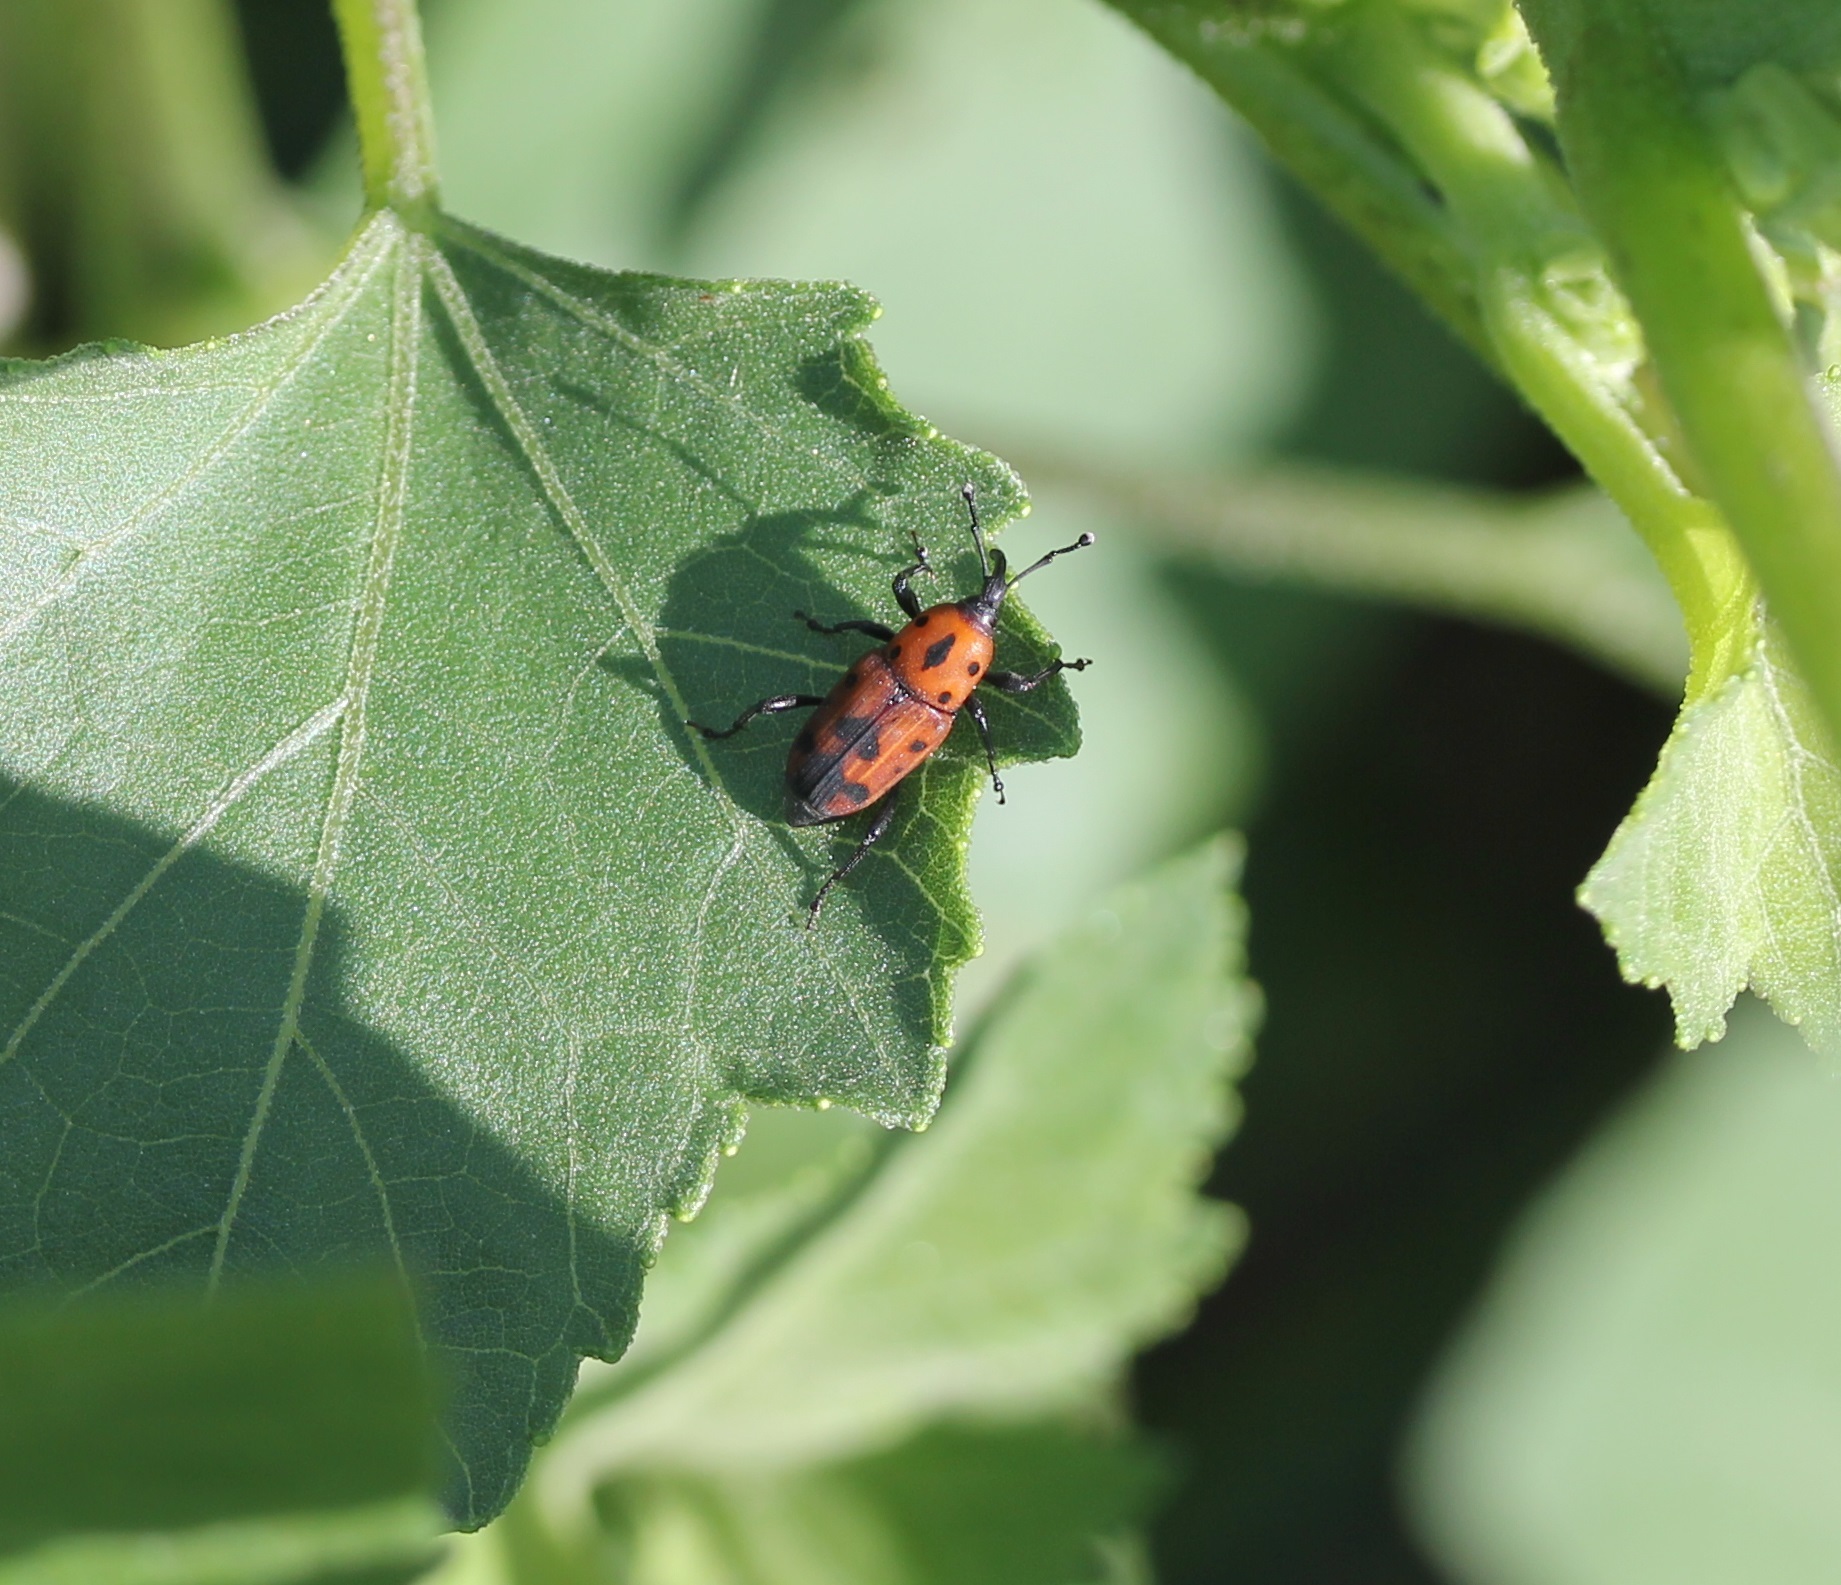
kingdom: Animalia
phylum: Arthropoda
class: Insecta
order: Coleoptera
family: Dryophthoridae
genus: Rhodobaenus
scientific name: Rhodobaenus quinquepunctatus
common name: Cocklebur weevil
